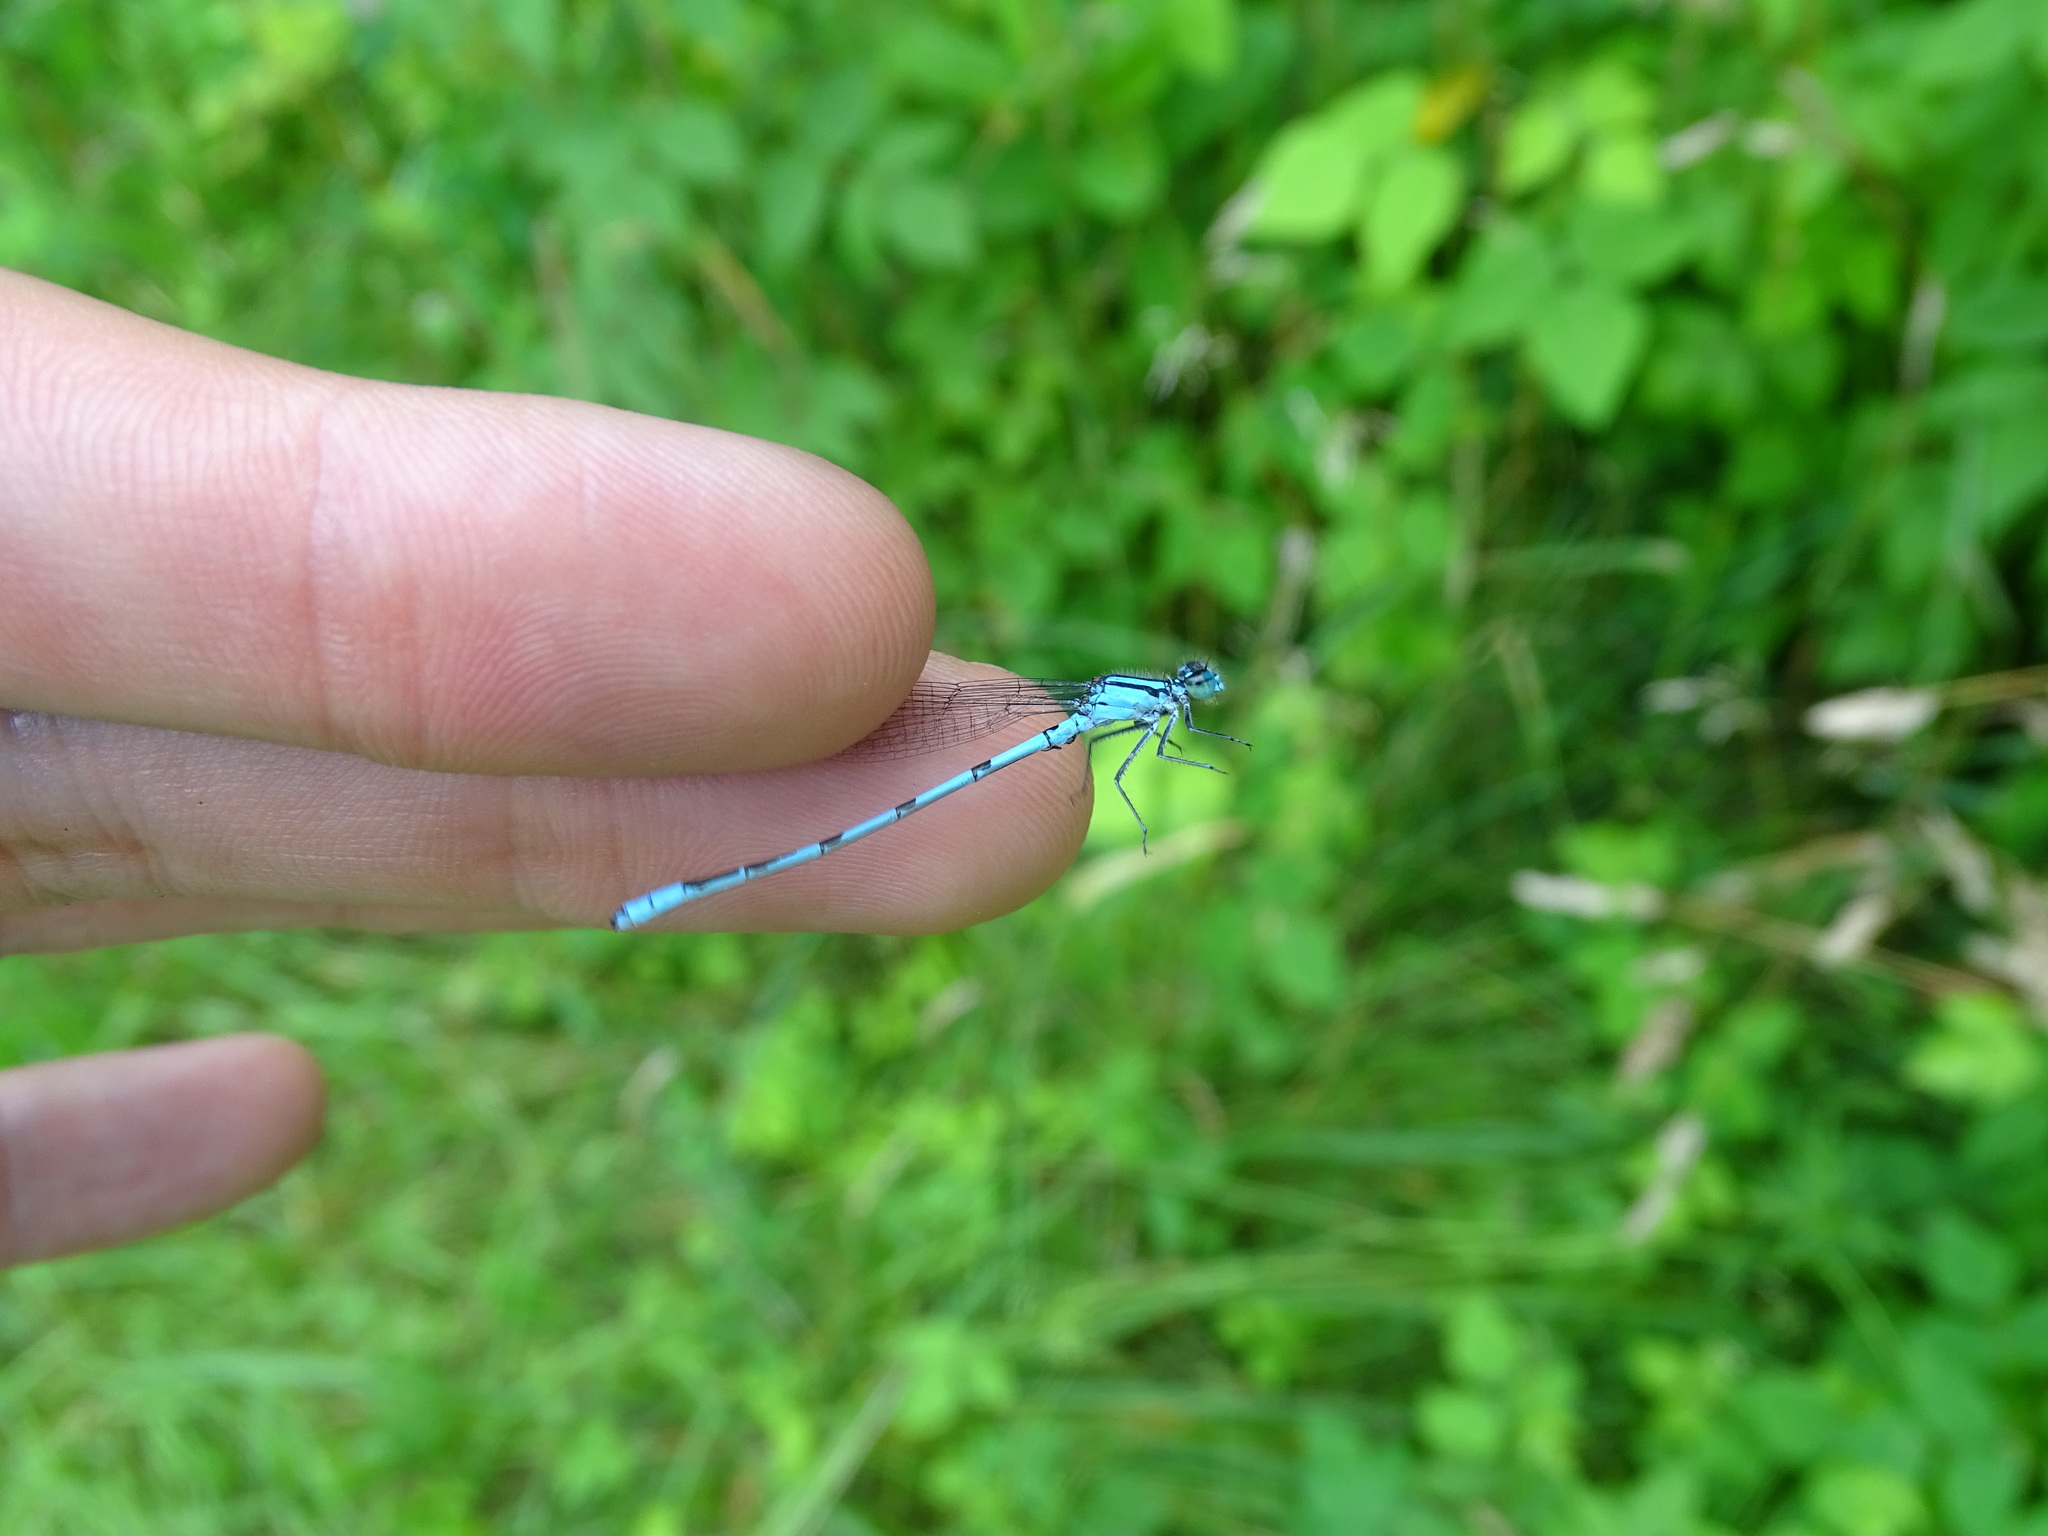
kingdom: Animalia
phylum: Arthropoda
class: Insecta
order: Odonata
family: Coenagrionidae
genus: Enallagma
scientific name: Enallagma ebrium
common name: Marsh bluet
